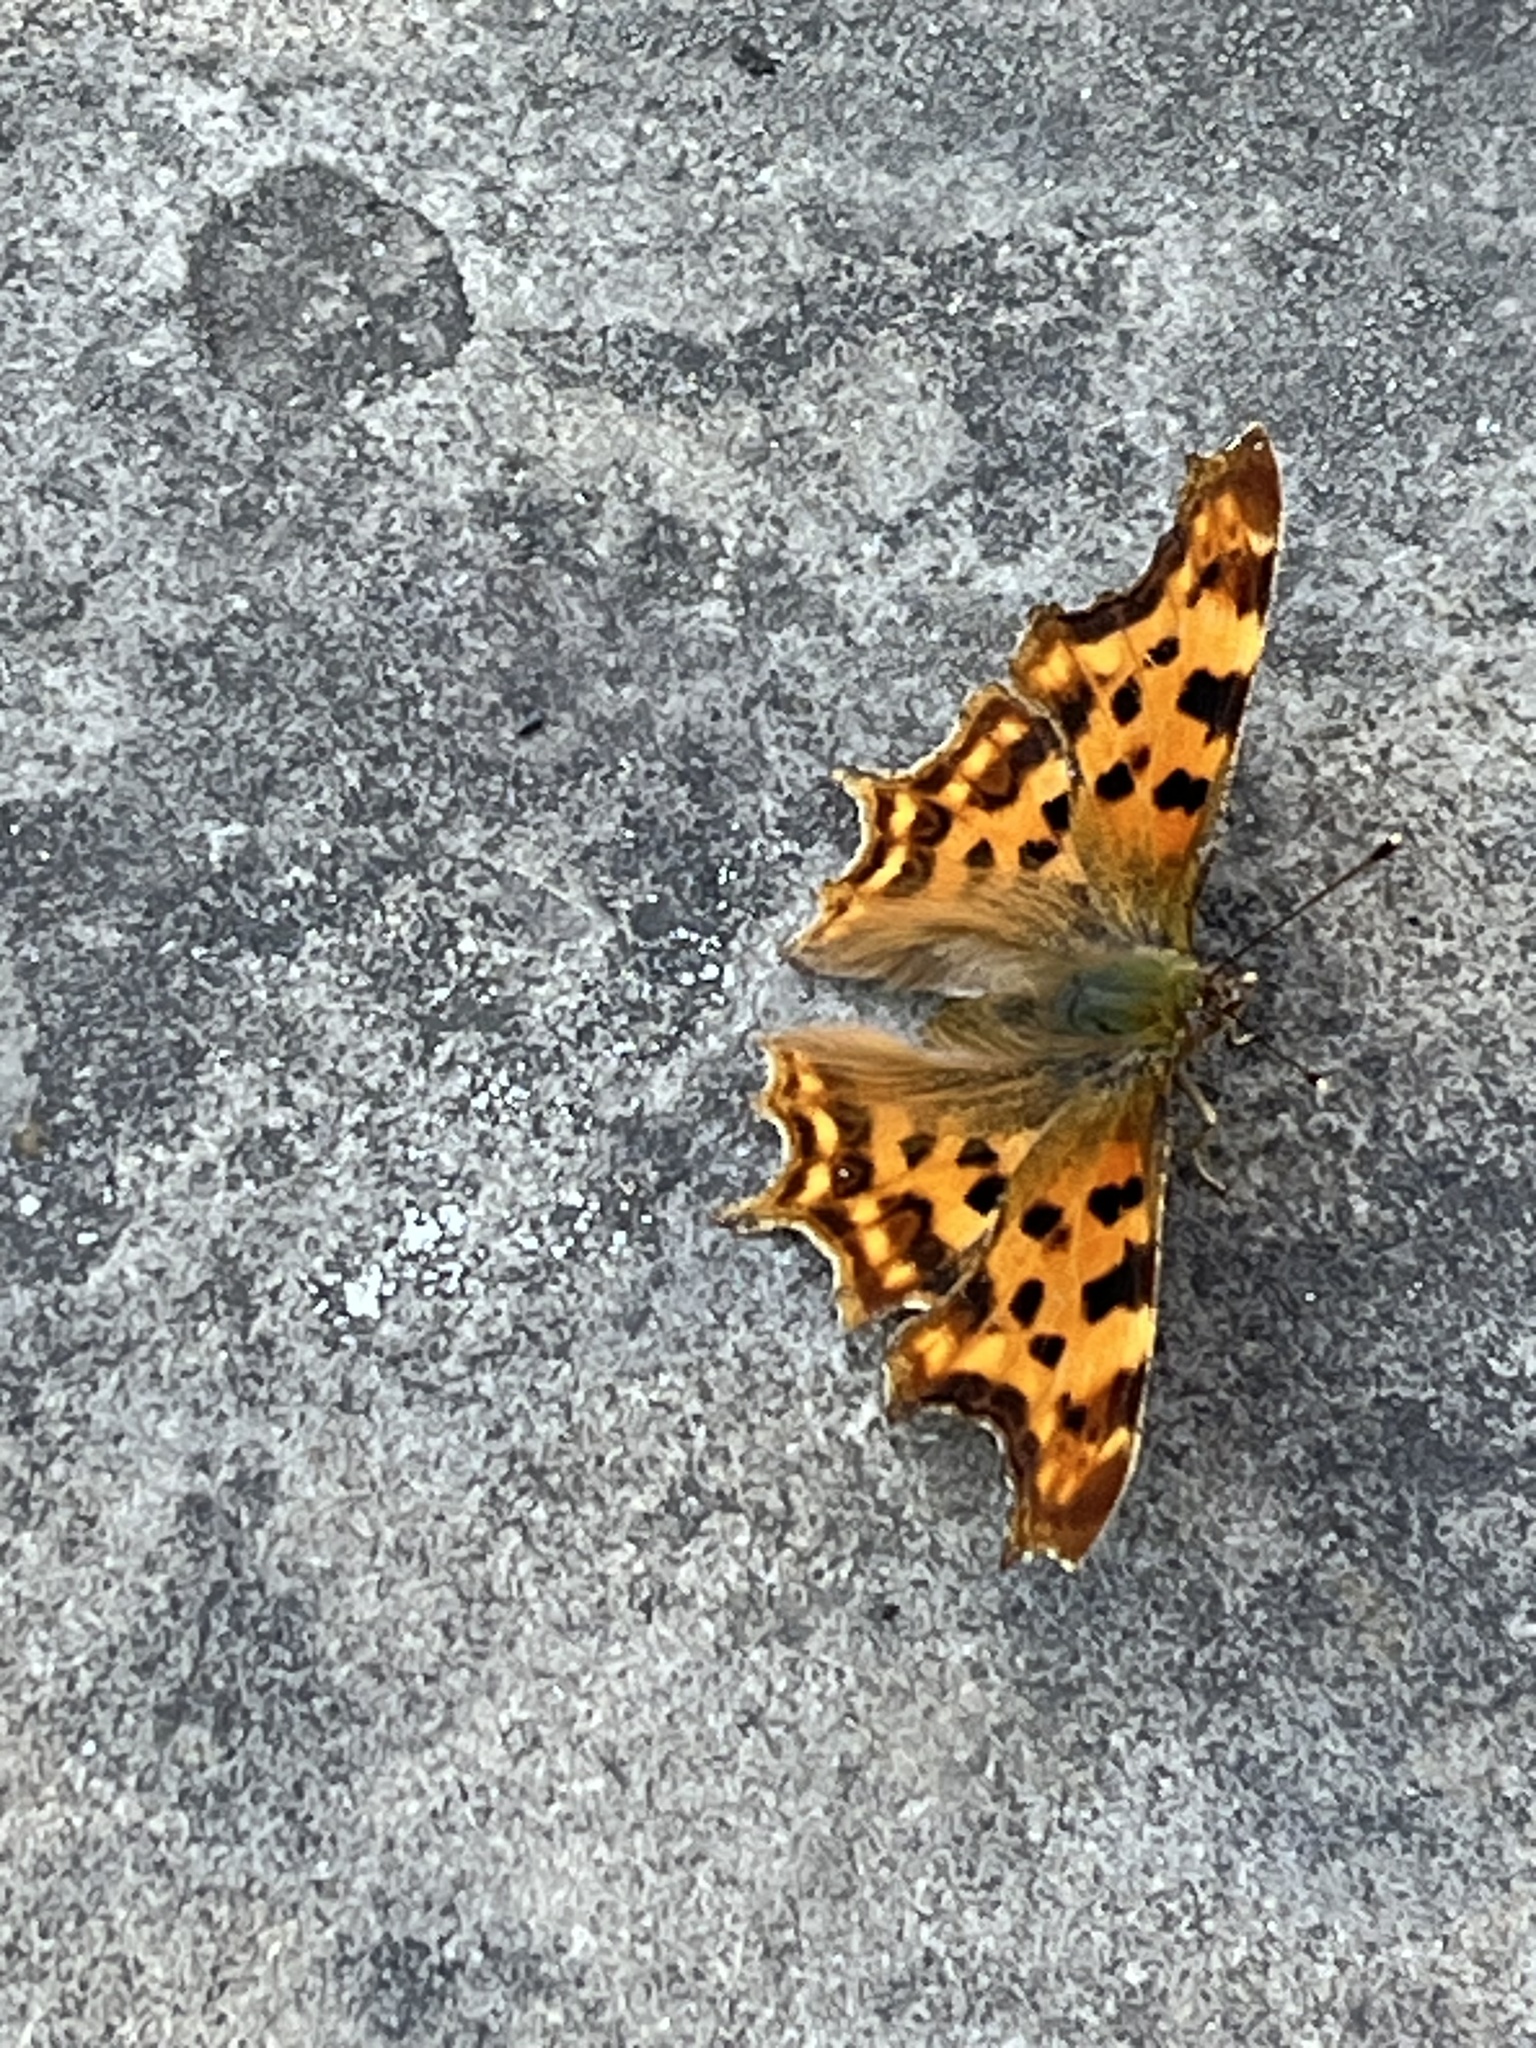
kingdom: Animalia
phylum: Arthropoda
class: Insecta
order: Lepidoptera
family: Nymphalidae
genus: Polygonia
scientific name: Polygonia c-album
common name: Comma
